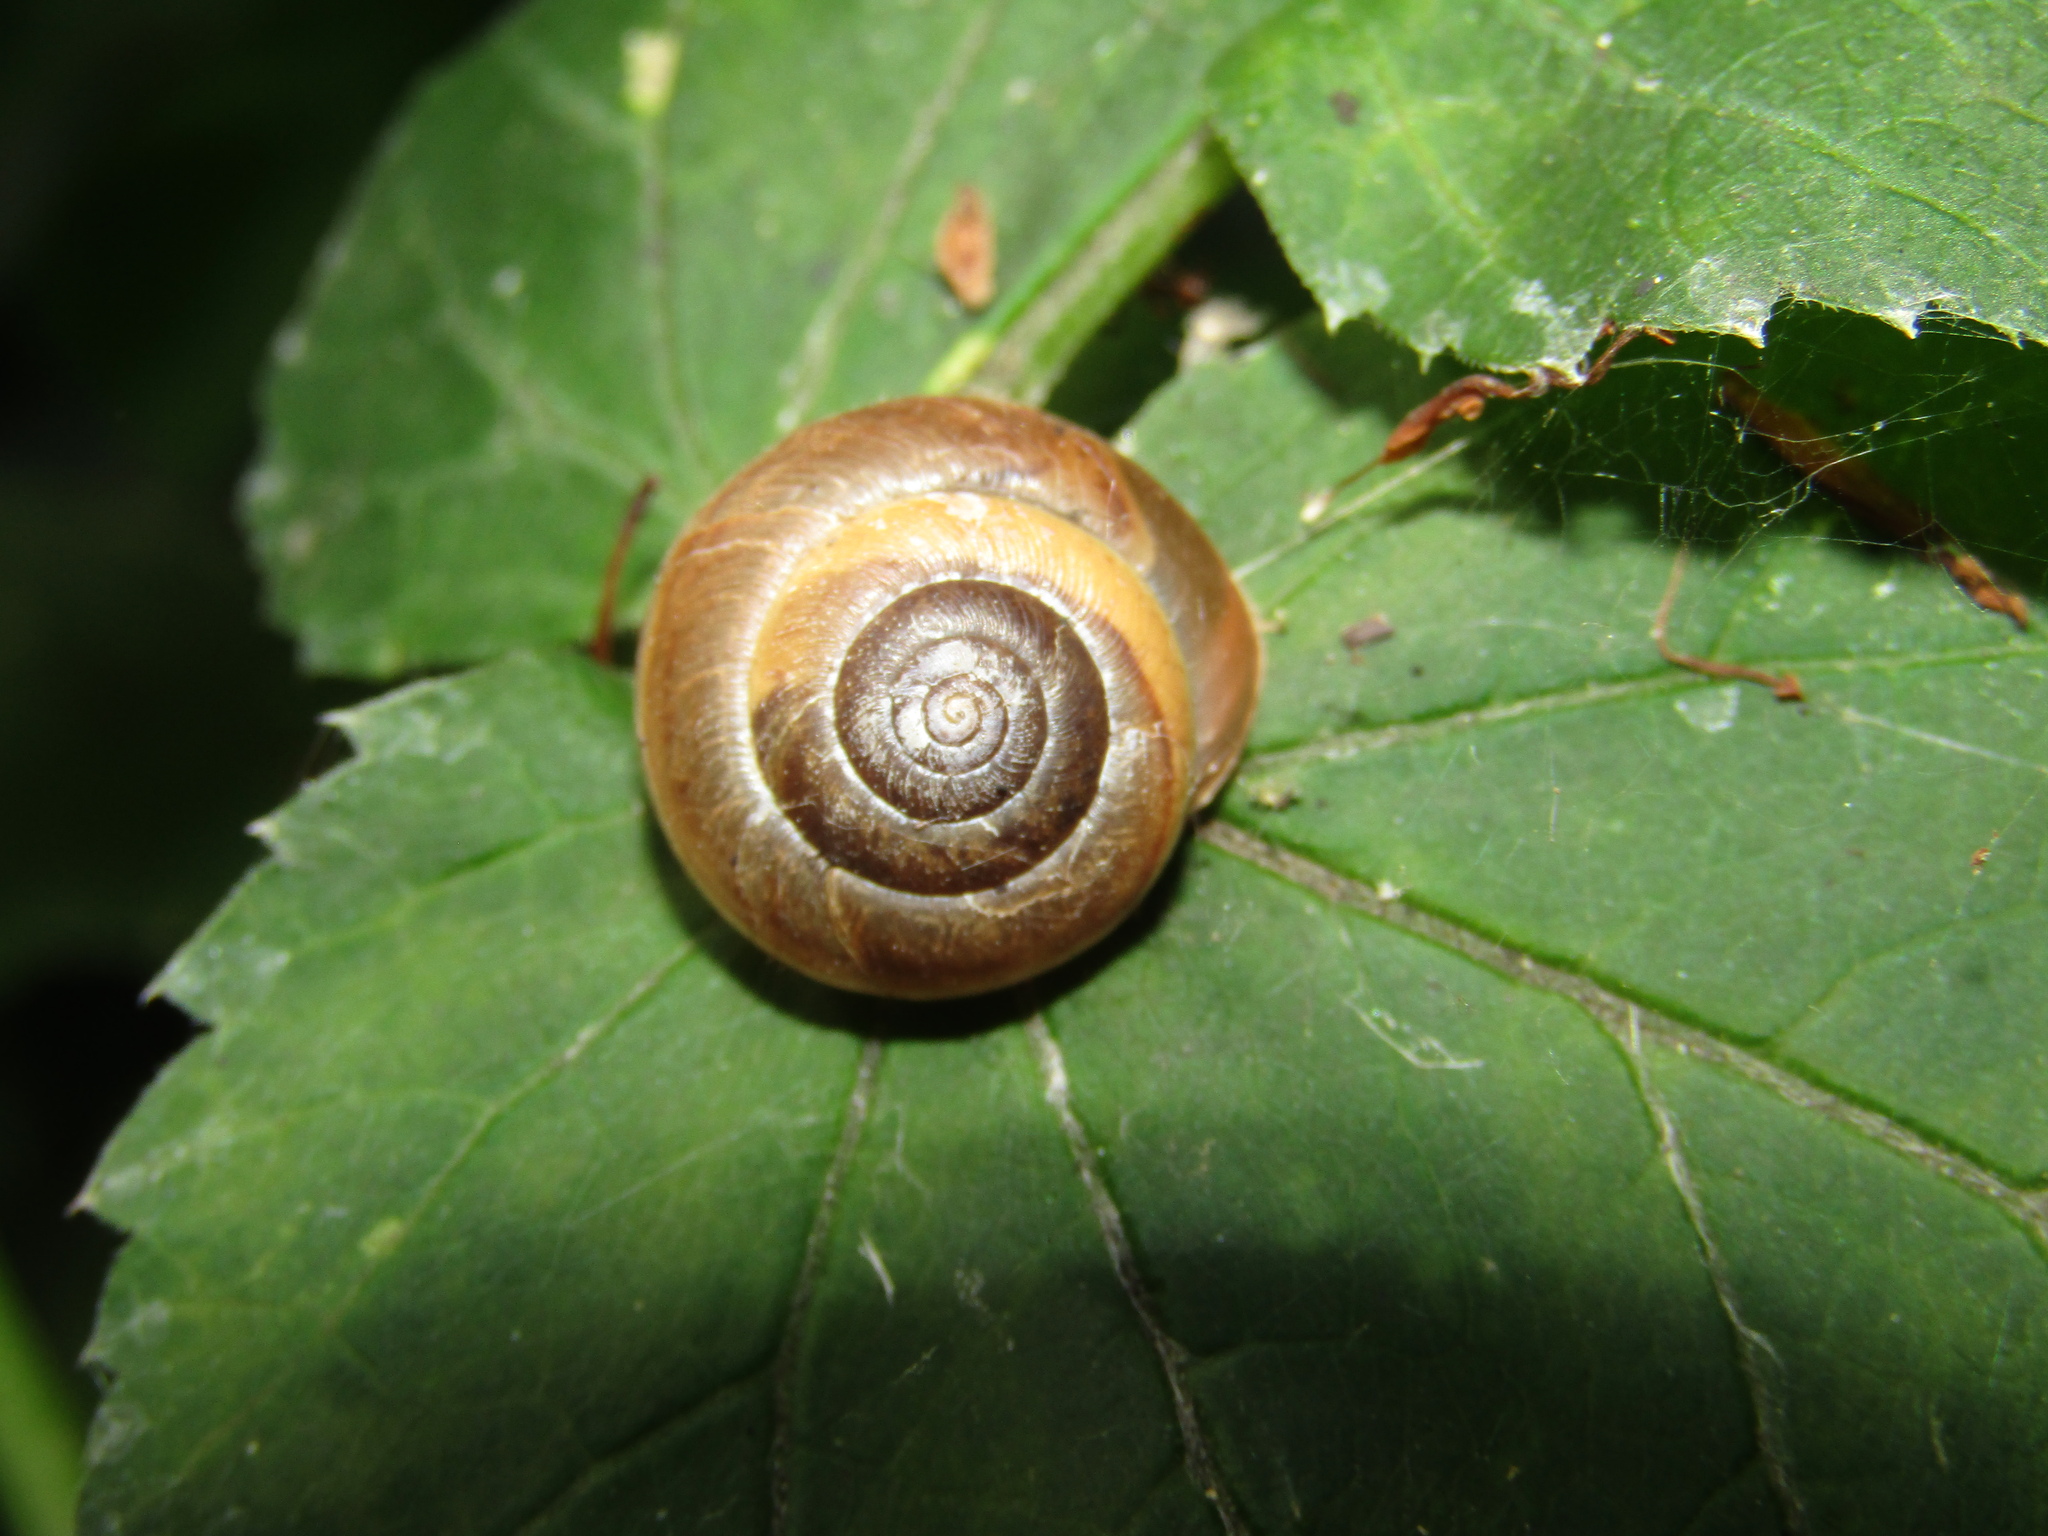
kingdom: Animalia
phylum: Mollusca
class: Gastropoda
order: Stylommatophora
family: Hygromiidae
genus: Euomphalia
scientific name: Euomphalia strigella
